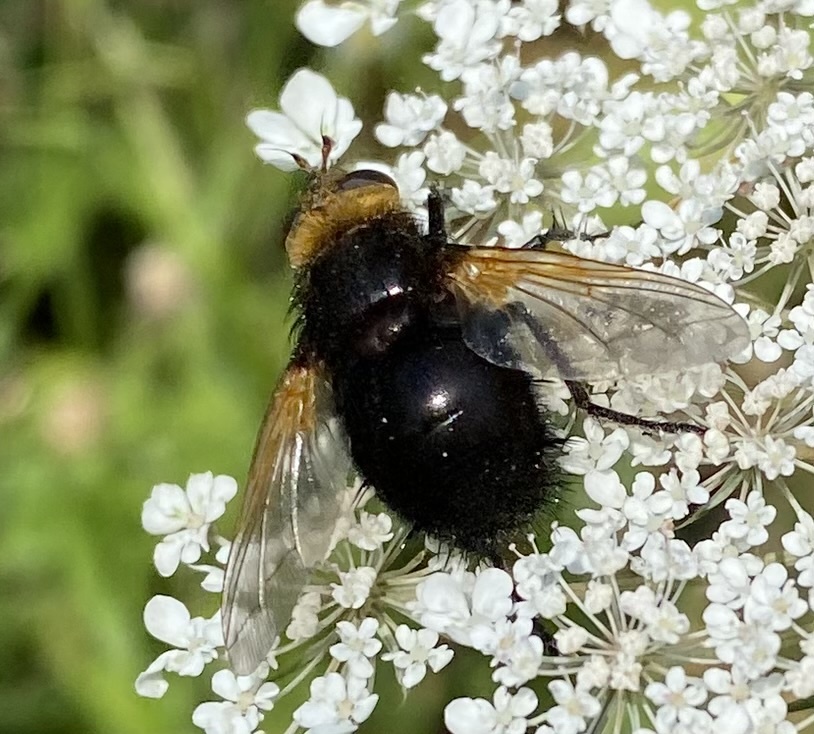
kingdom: Animalia
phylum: Arthropoda
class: Insecta
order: Diptera
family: Tachinidae
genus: Tachina
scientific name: Tachina grossa
